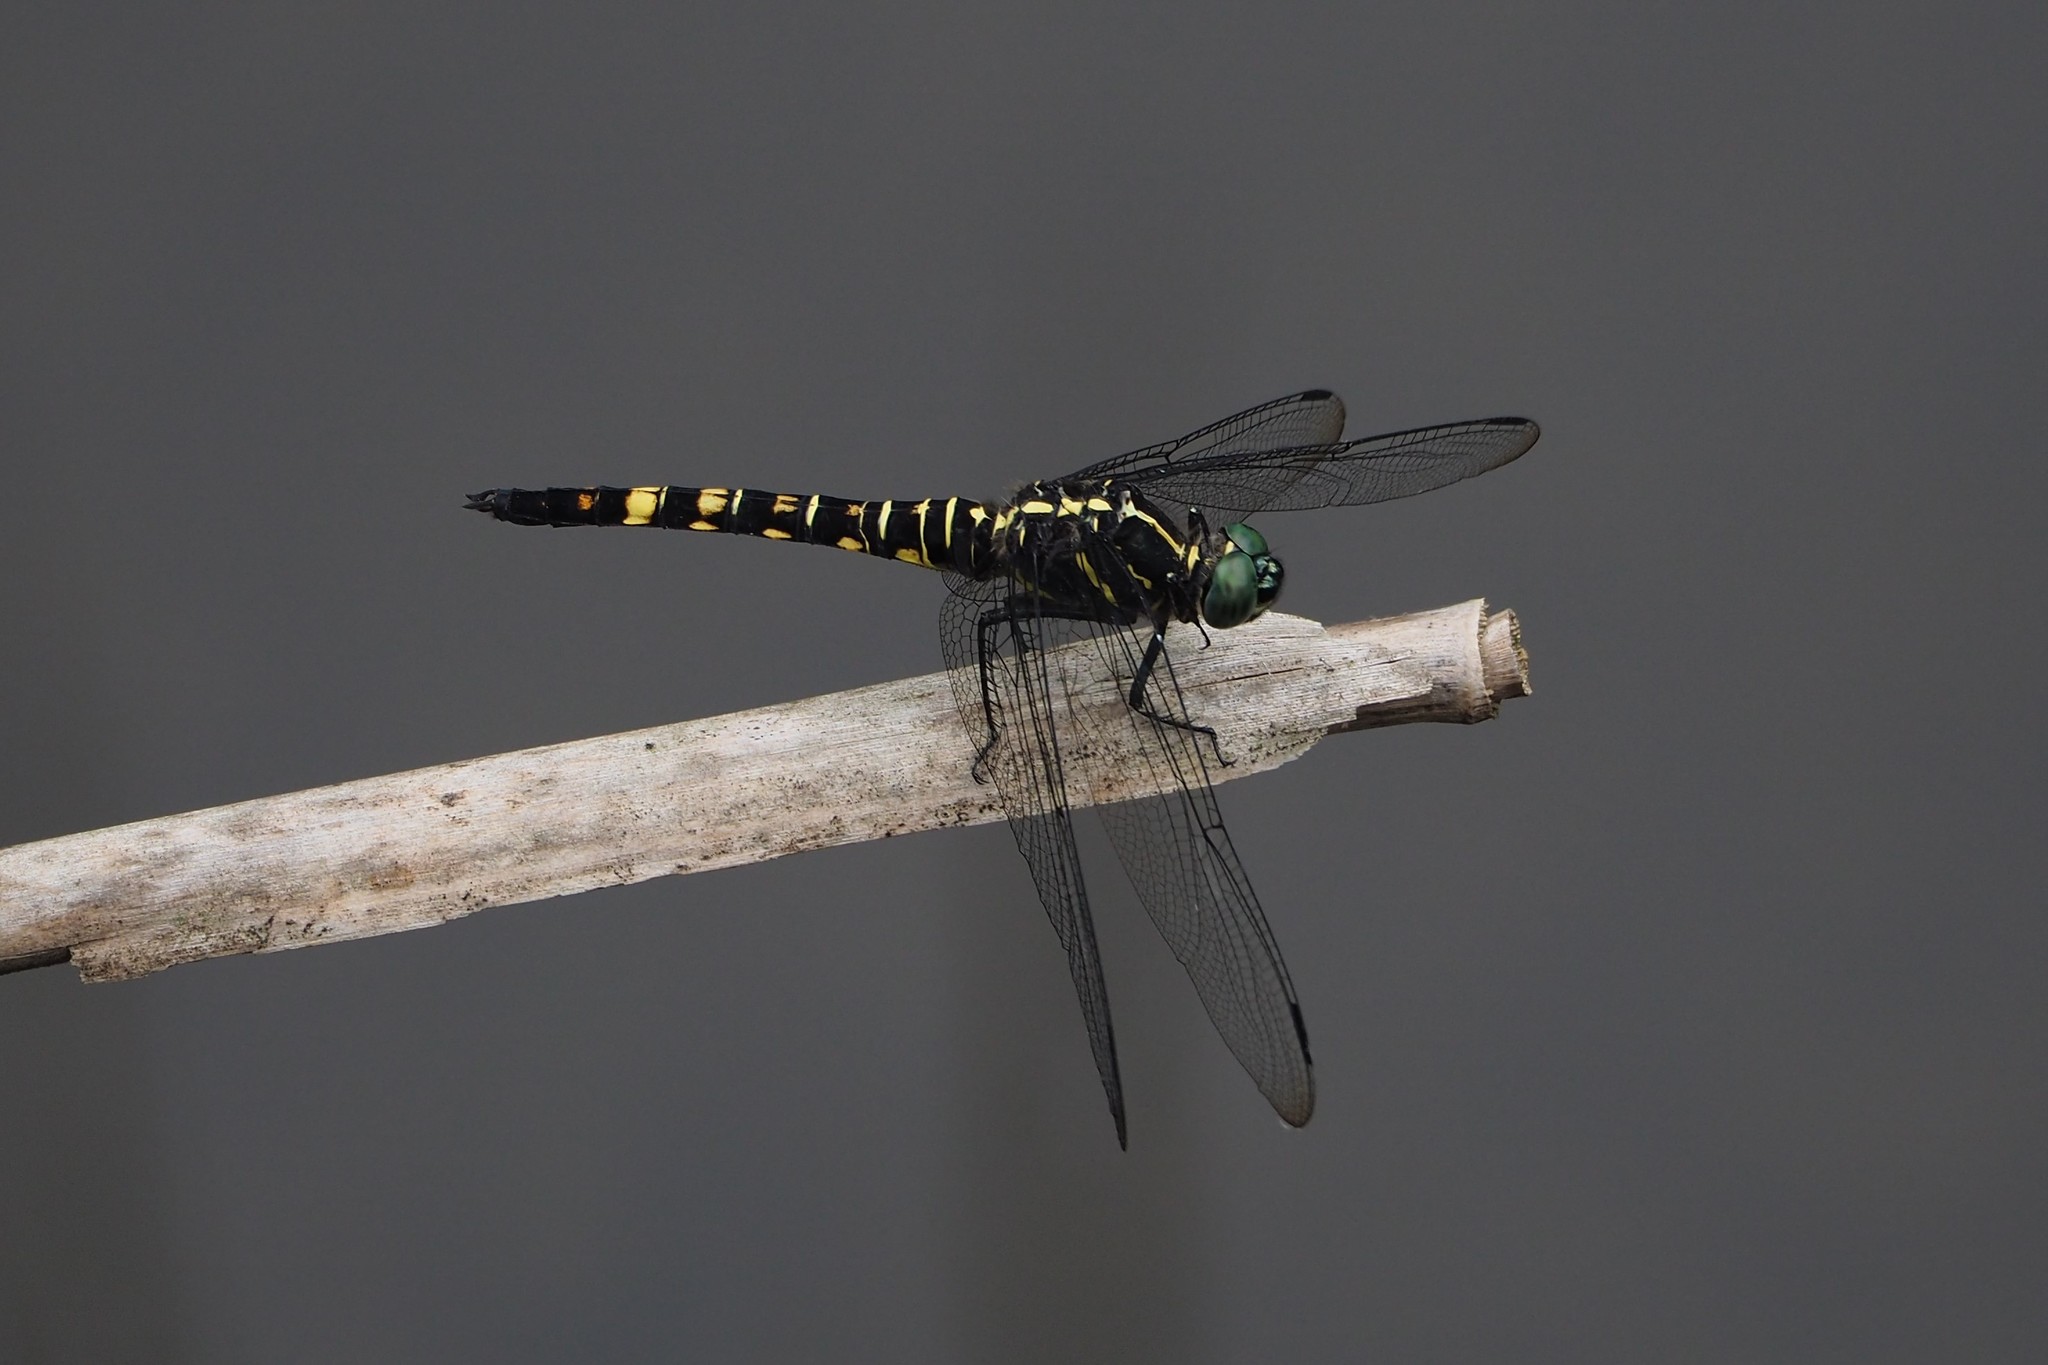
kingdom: Animalia
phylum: Arthropoda
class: Insecta
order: Odonata
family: Libellulidae
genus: Onychothemis
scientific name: Onychothemis tonkinensis
